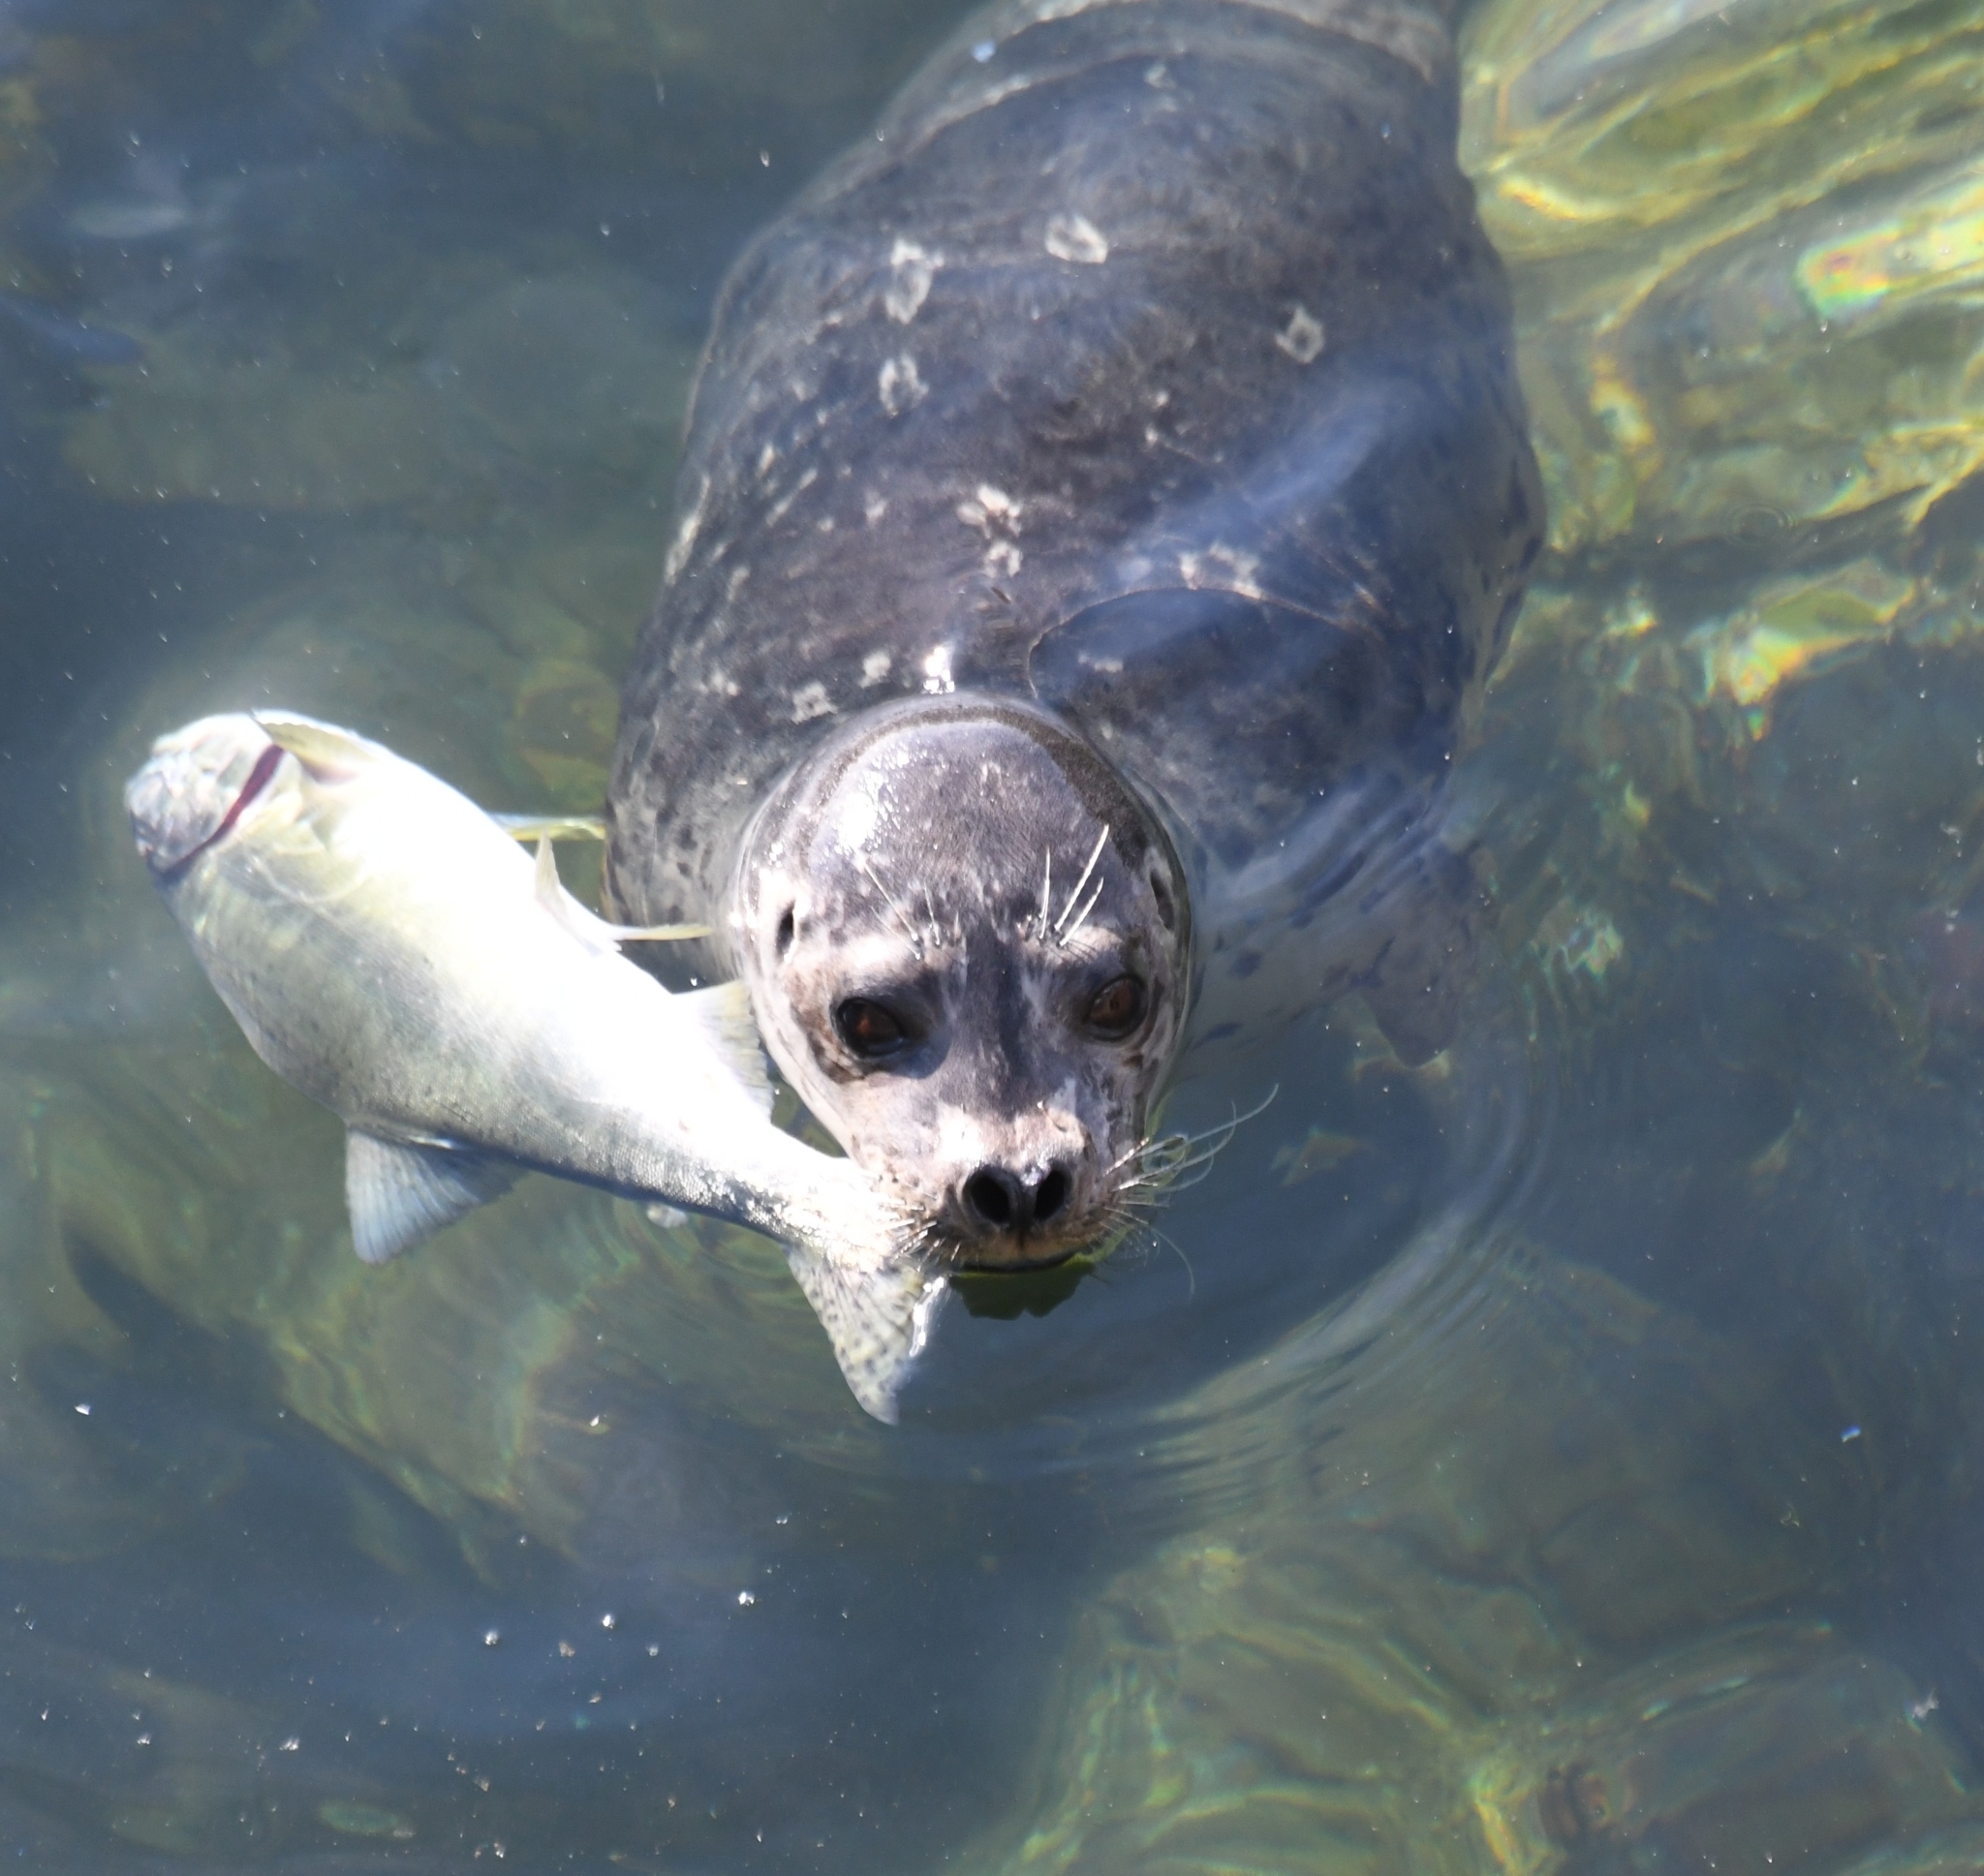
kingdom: Animalia
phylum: Chordata
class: Mammalia
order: Carnivora
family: Phocidae
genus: Phoca
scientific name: Phoca vitulina
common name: Harbor seal
